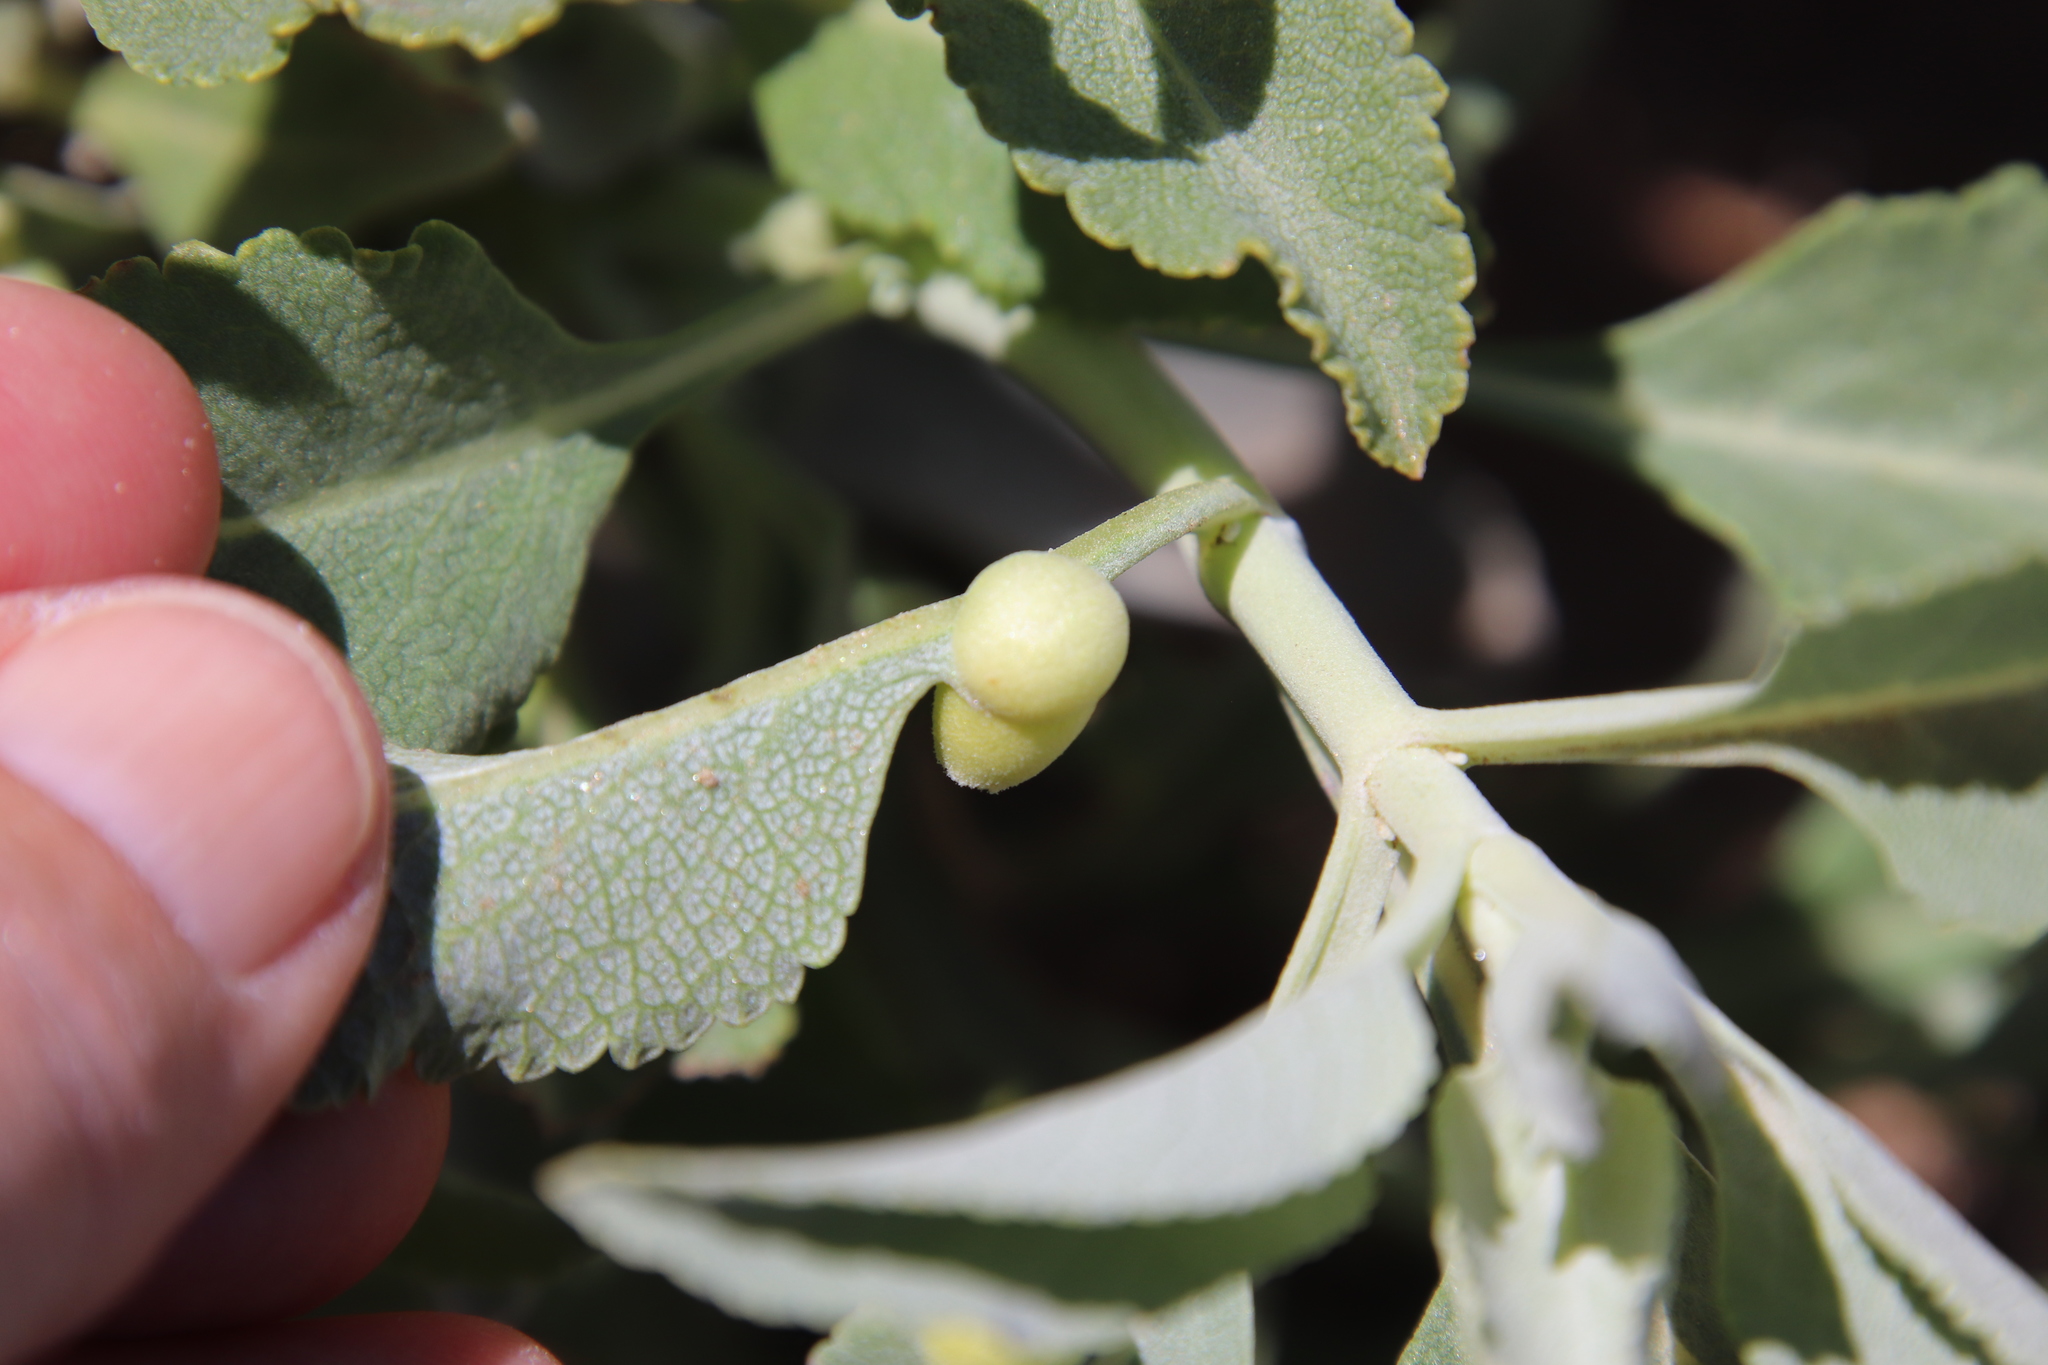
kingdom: Animalia
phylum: Arthropoda
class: Insecta
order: Diptera
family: Cecidomyiidae
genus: Rhopalomyia
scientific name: Rhopalomyia audibertiae
